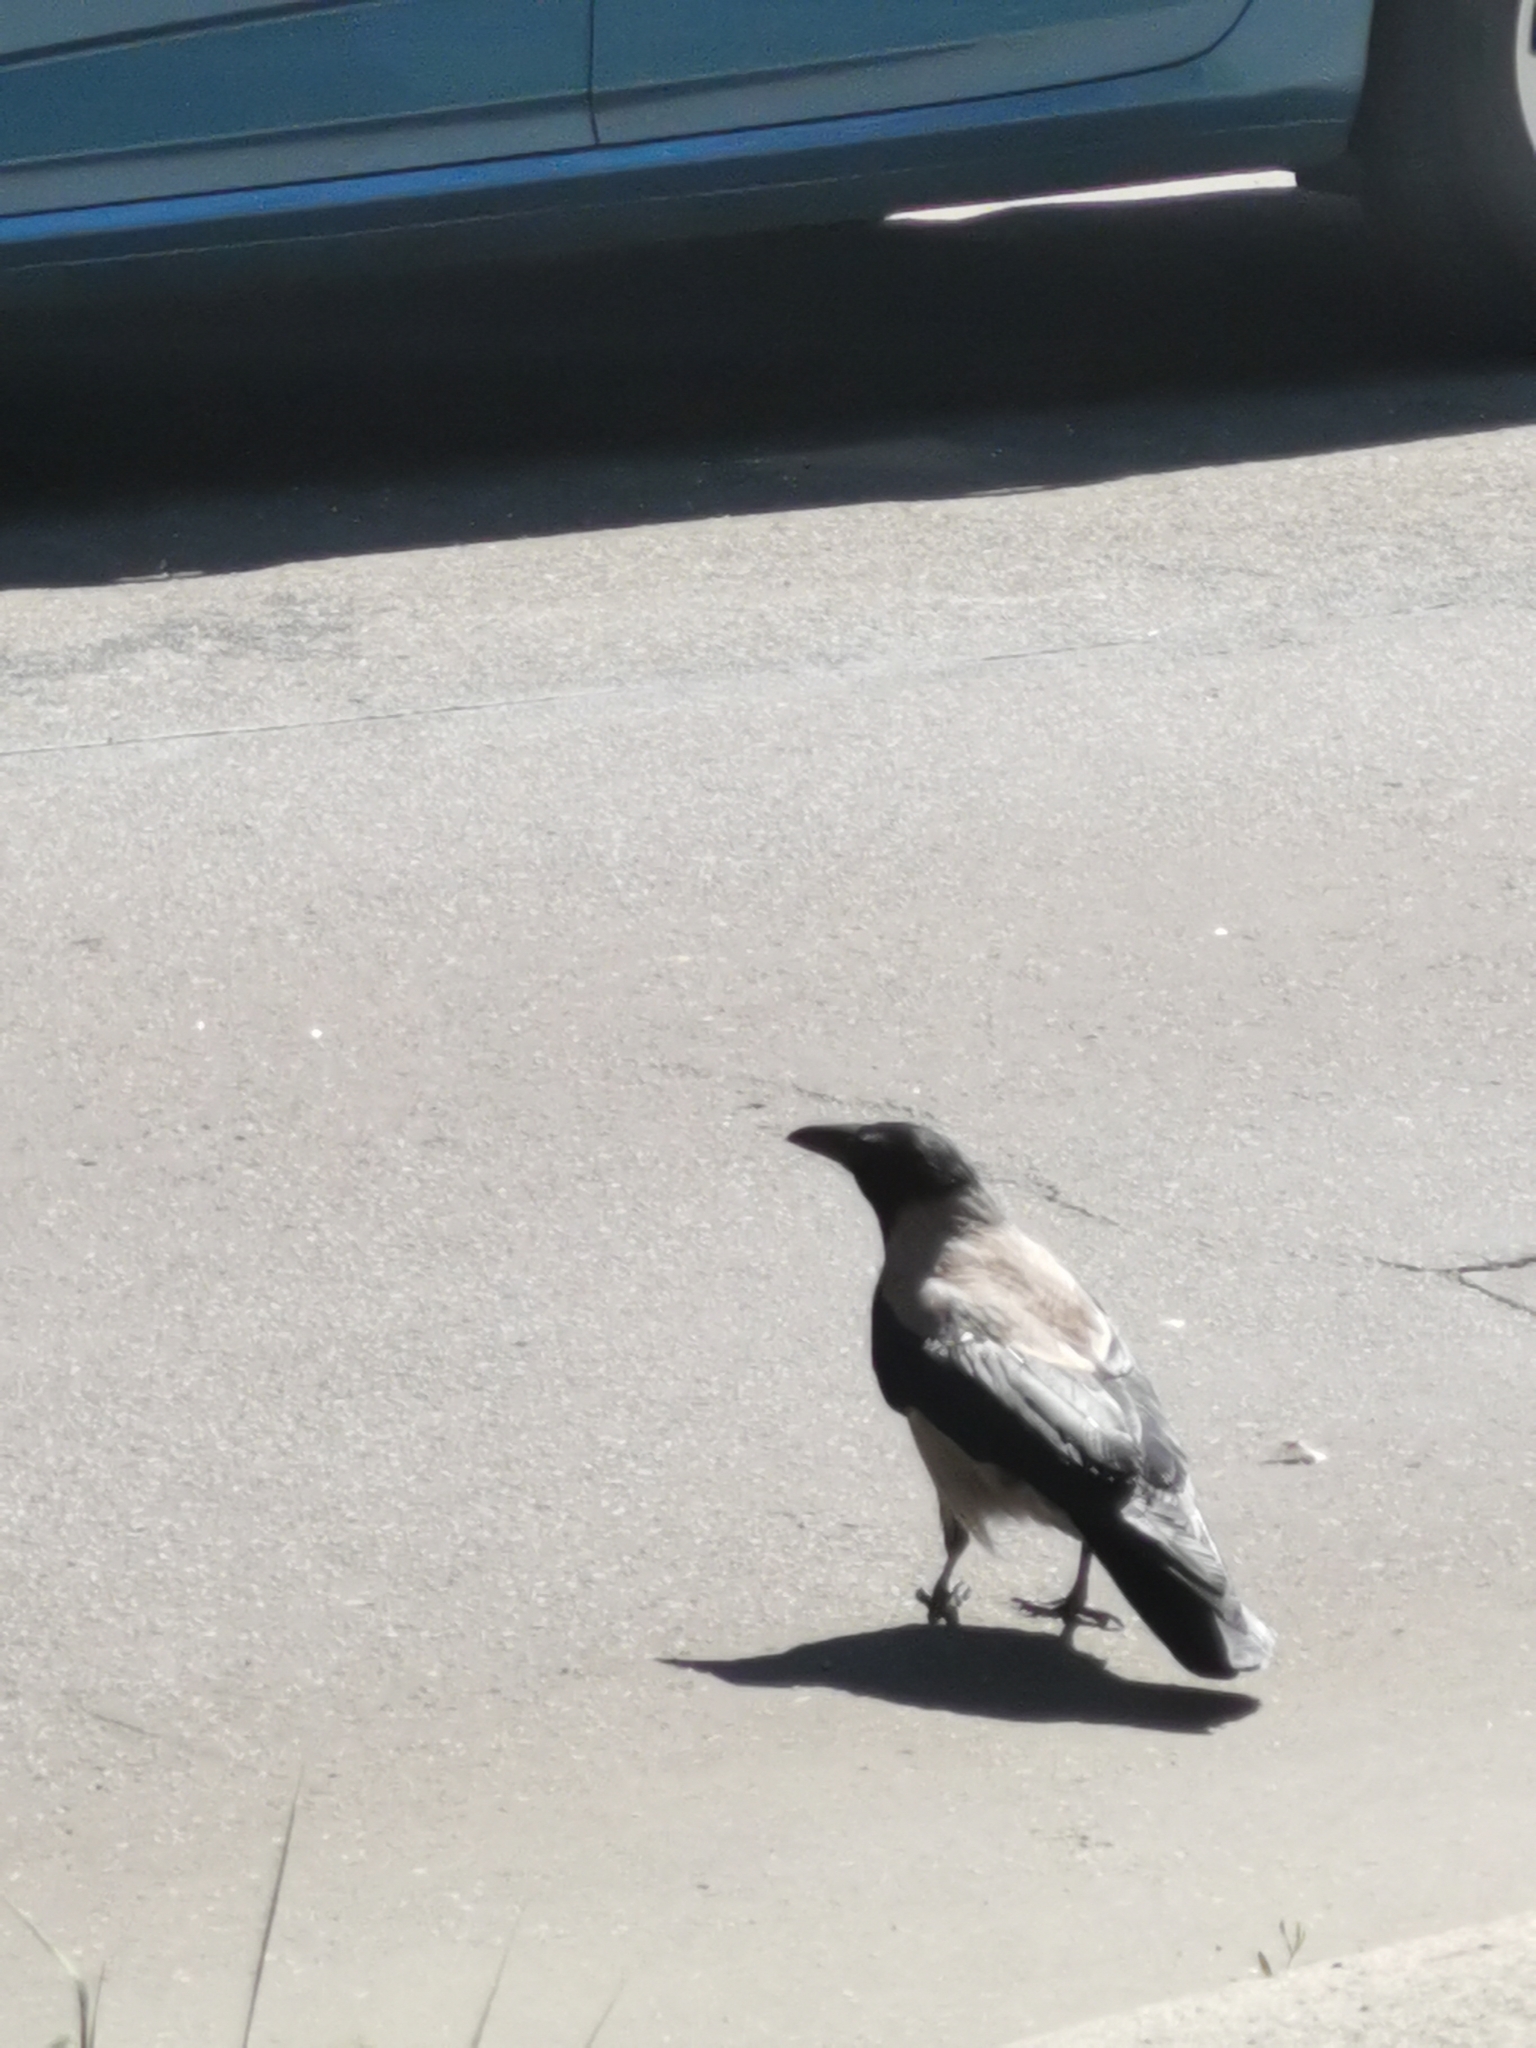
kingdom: Animalia
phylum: Chordata
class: Aves
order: Passeriformes
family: Corvidae
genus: Corvus
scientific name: Corvus cornix
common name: Hooded crow
